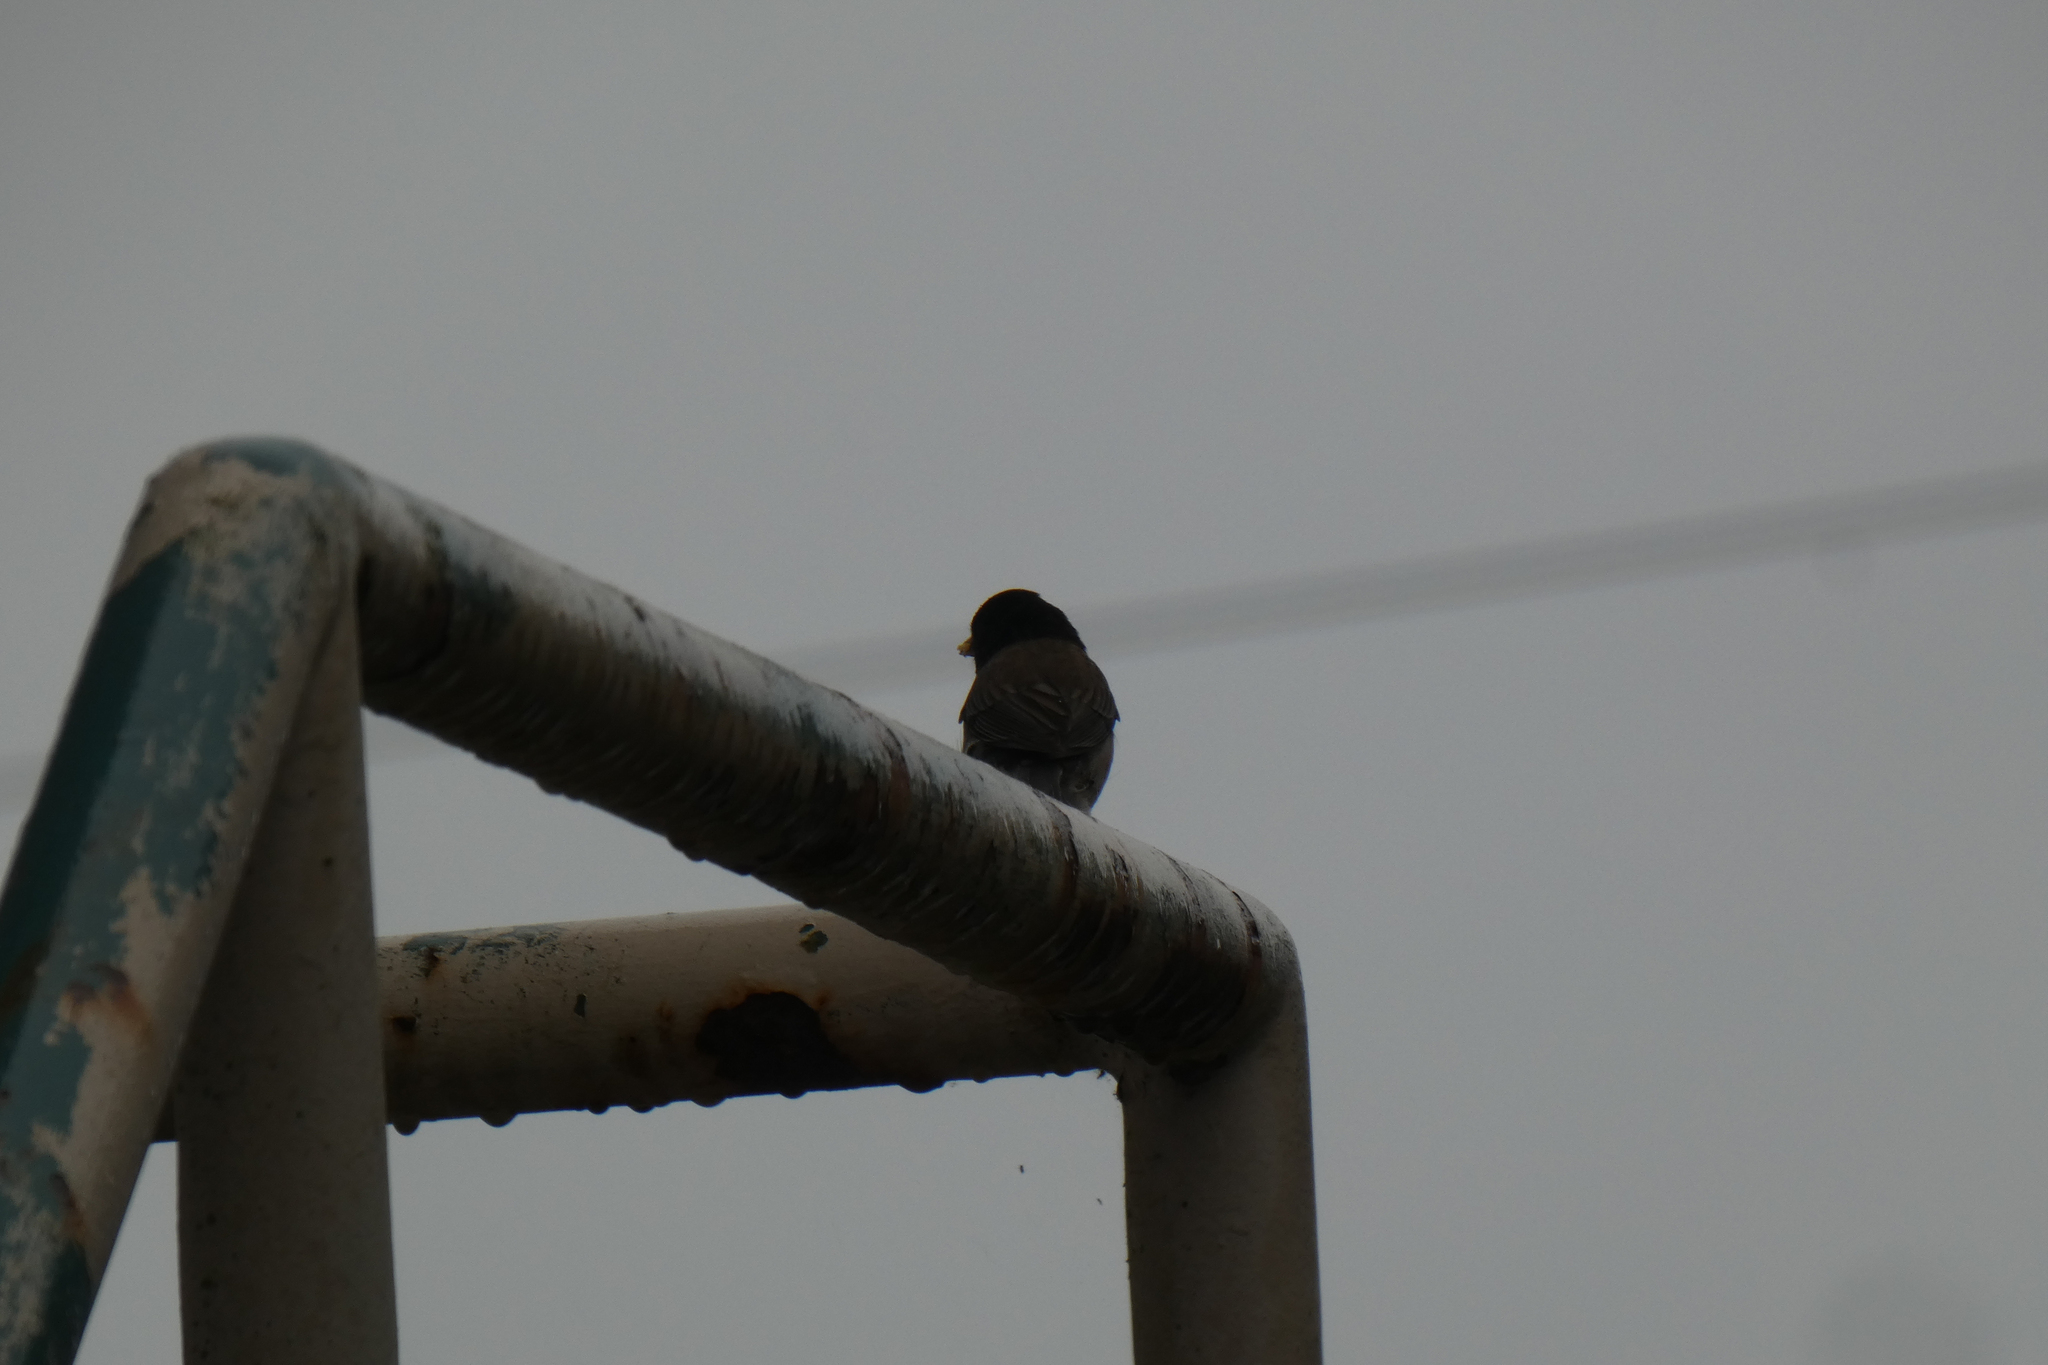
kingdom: Animalia
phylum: Chordata
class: Aves
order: Passeriformes
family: Passerellidae
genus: Junco
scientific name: Junco hyemalis
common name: Dark-eyed junco
